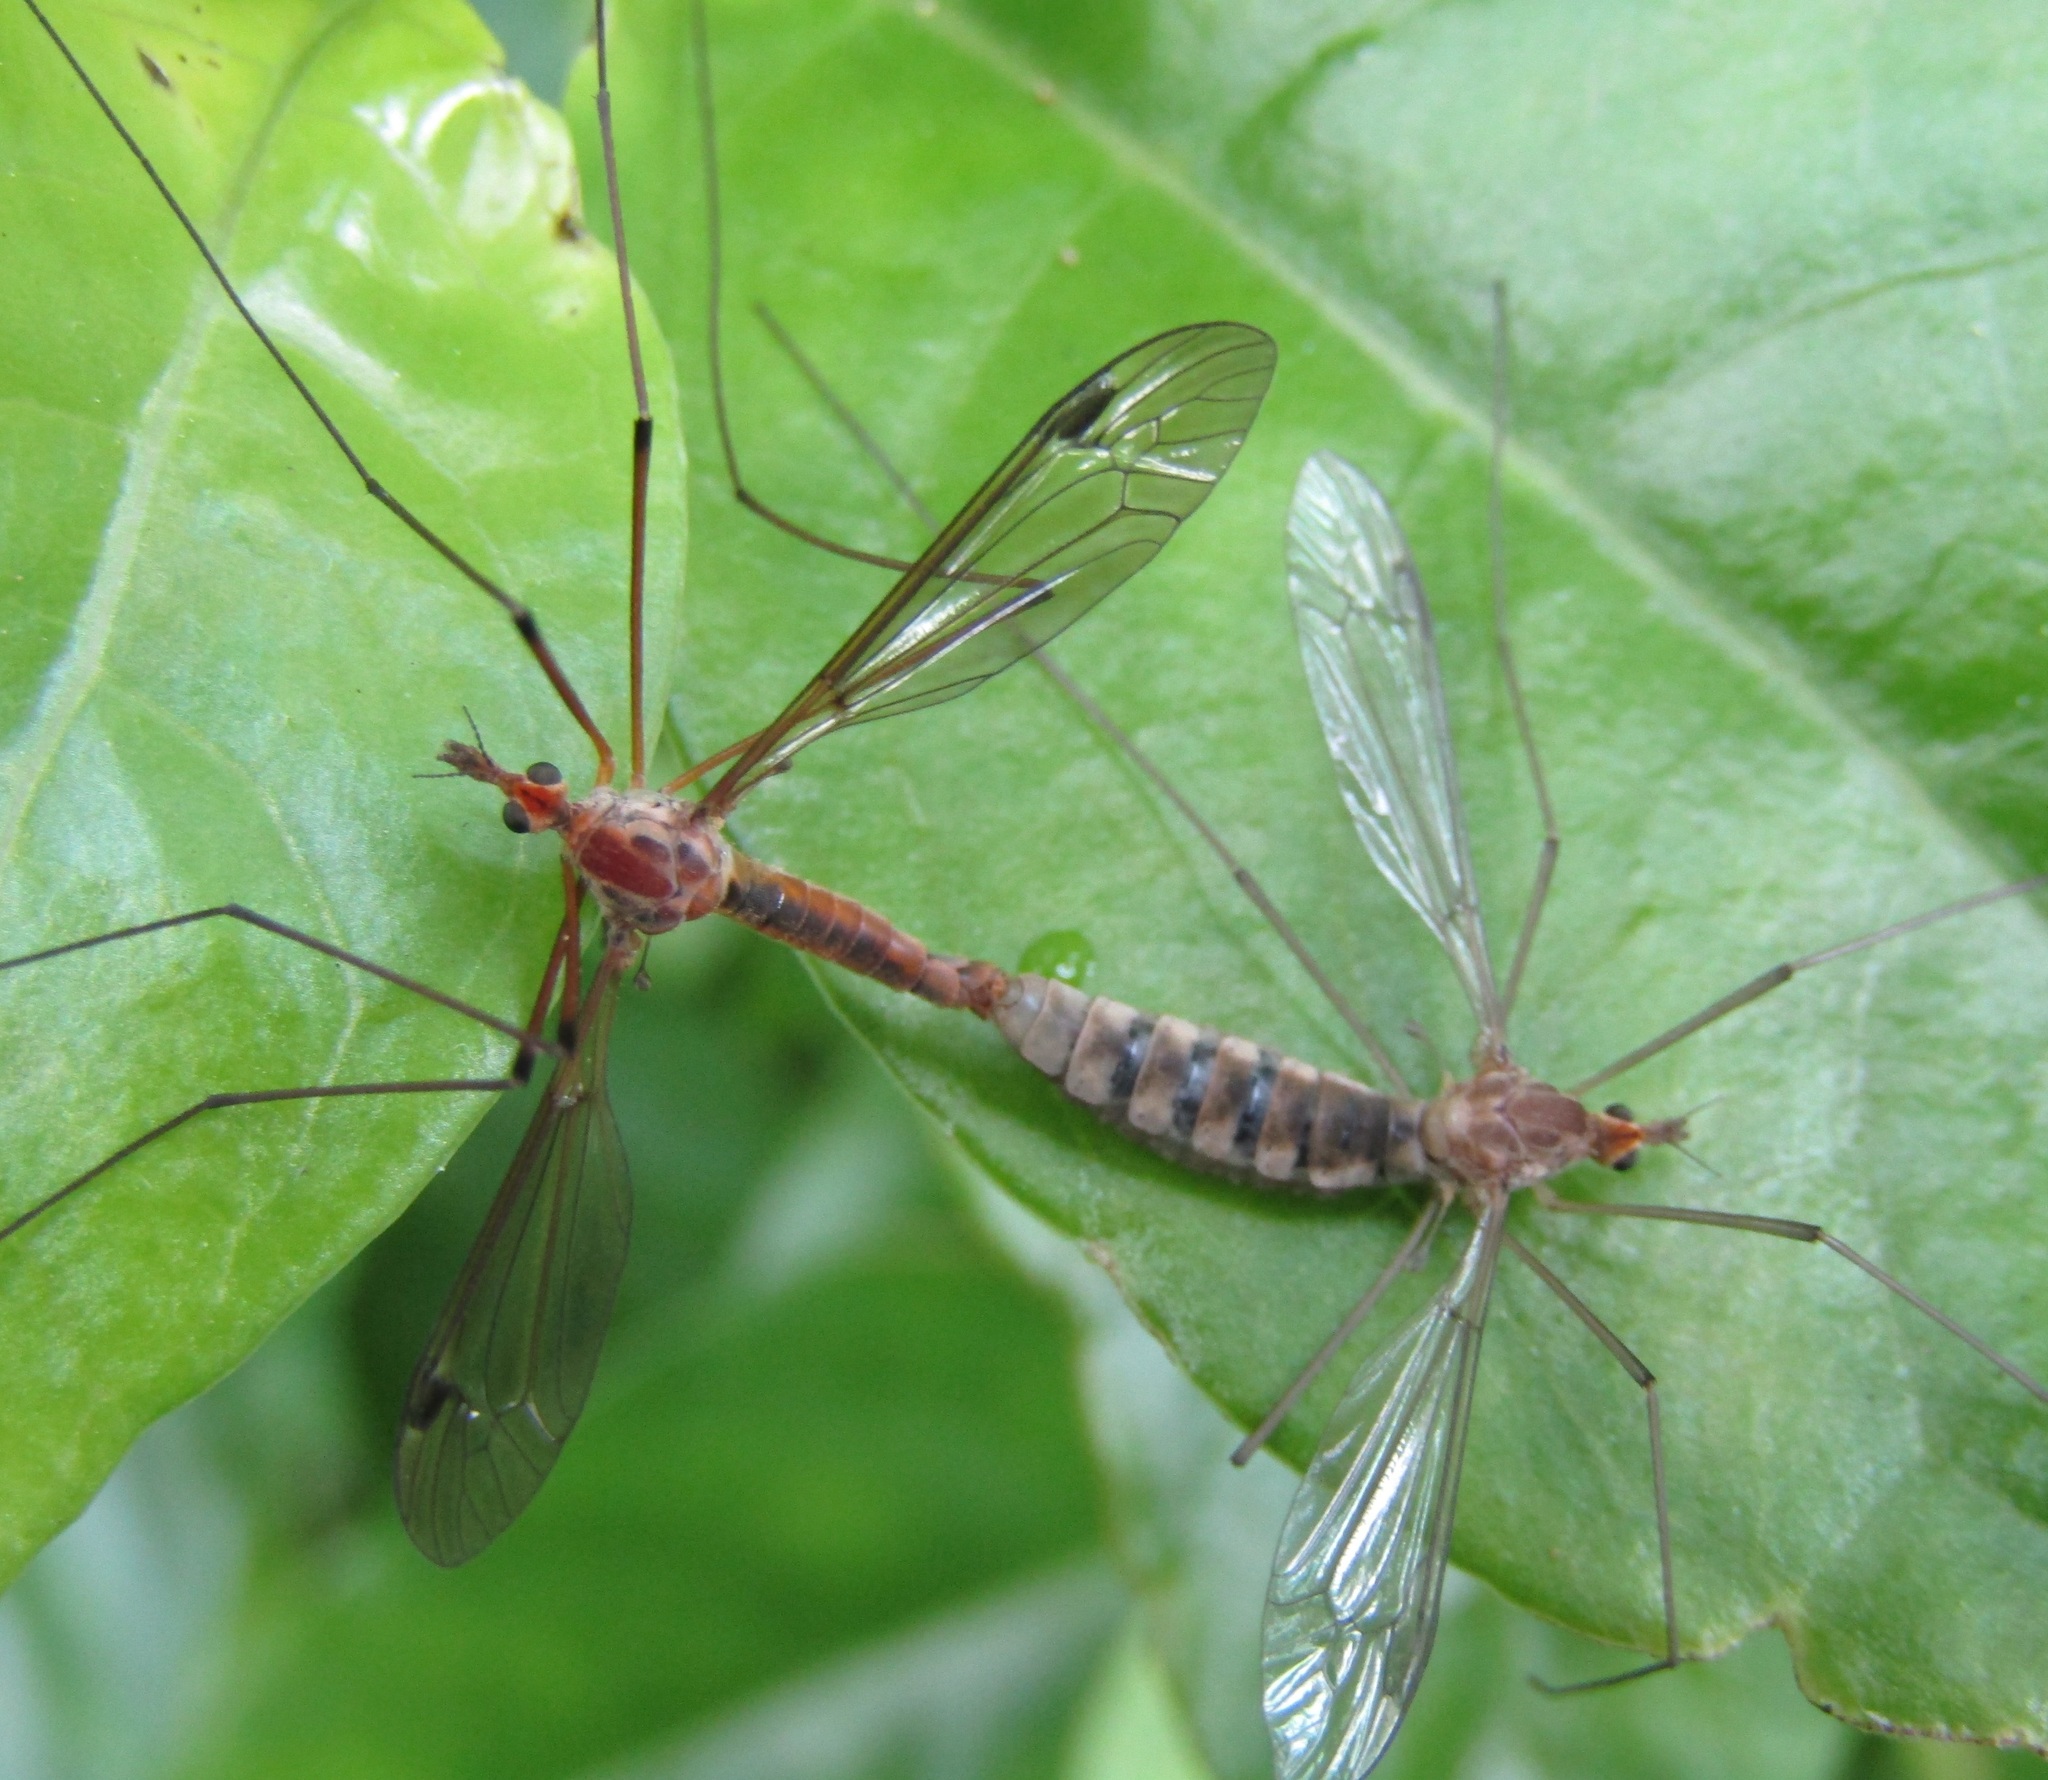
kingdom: Animalia
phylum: Arthropoda
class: Insecta
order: Diptera
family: Tipulidae
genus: Leptotarsus
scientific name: Leptotarsus dichroithorax
